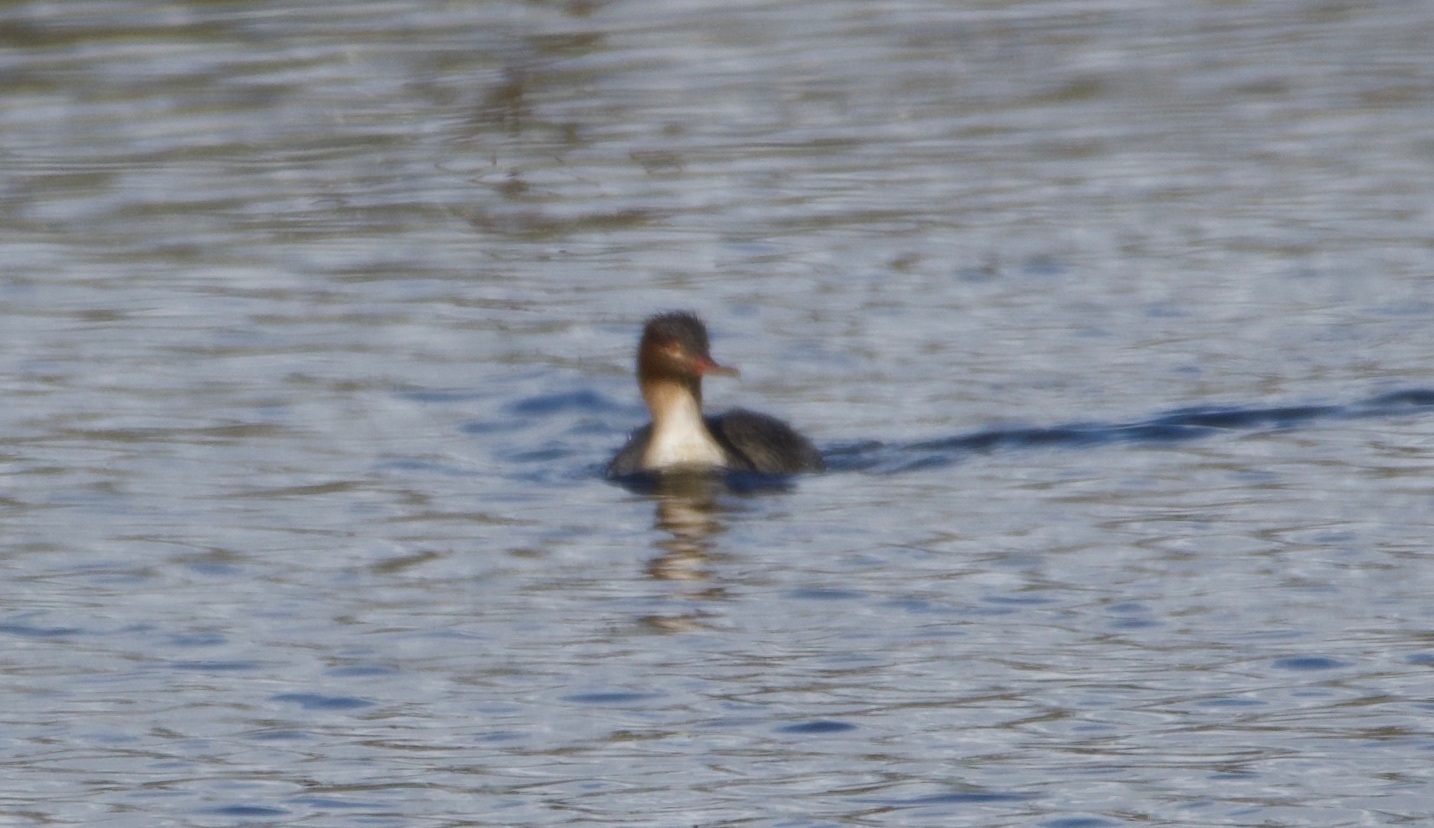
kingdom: Animalia
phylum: Chordata
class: Aves
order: Anseriformes
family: Anatidae
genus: Mergus
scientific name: Mergus serrator
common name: Red-breasted merganser
